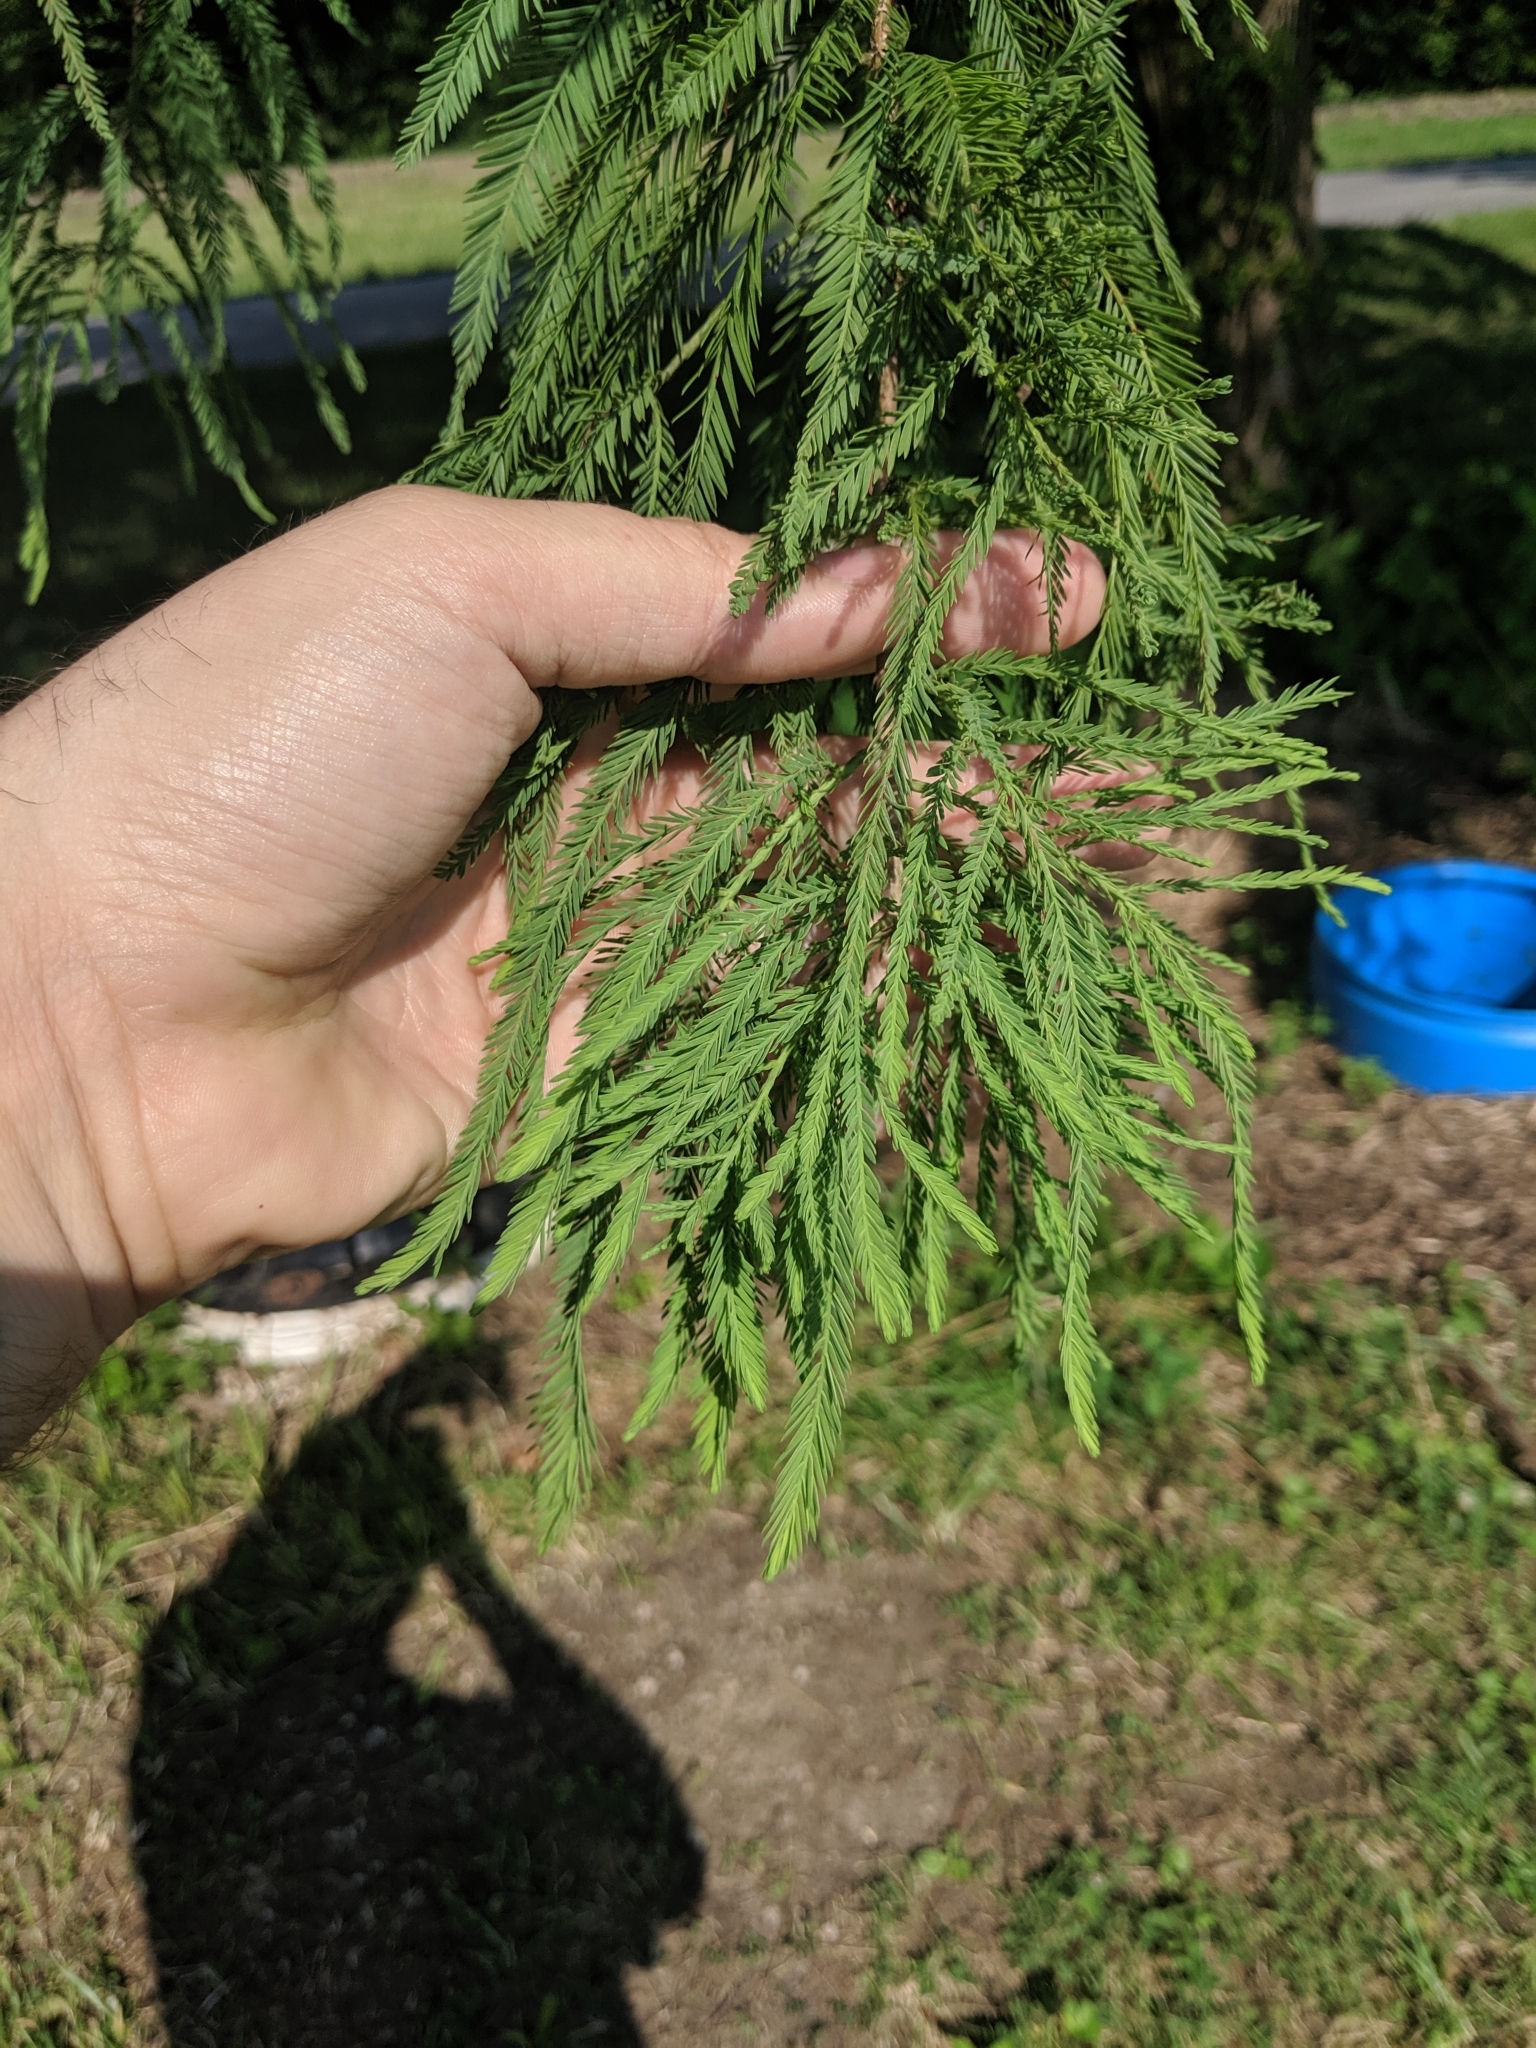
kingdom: Plantae
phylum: Tracheophyta
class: Pinopsida
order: Pinales
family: Cupressaceae
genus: Taxodium
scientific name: Taxodium distichum
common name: Bald cypress
